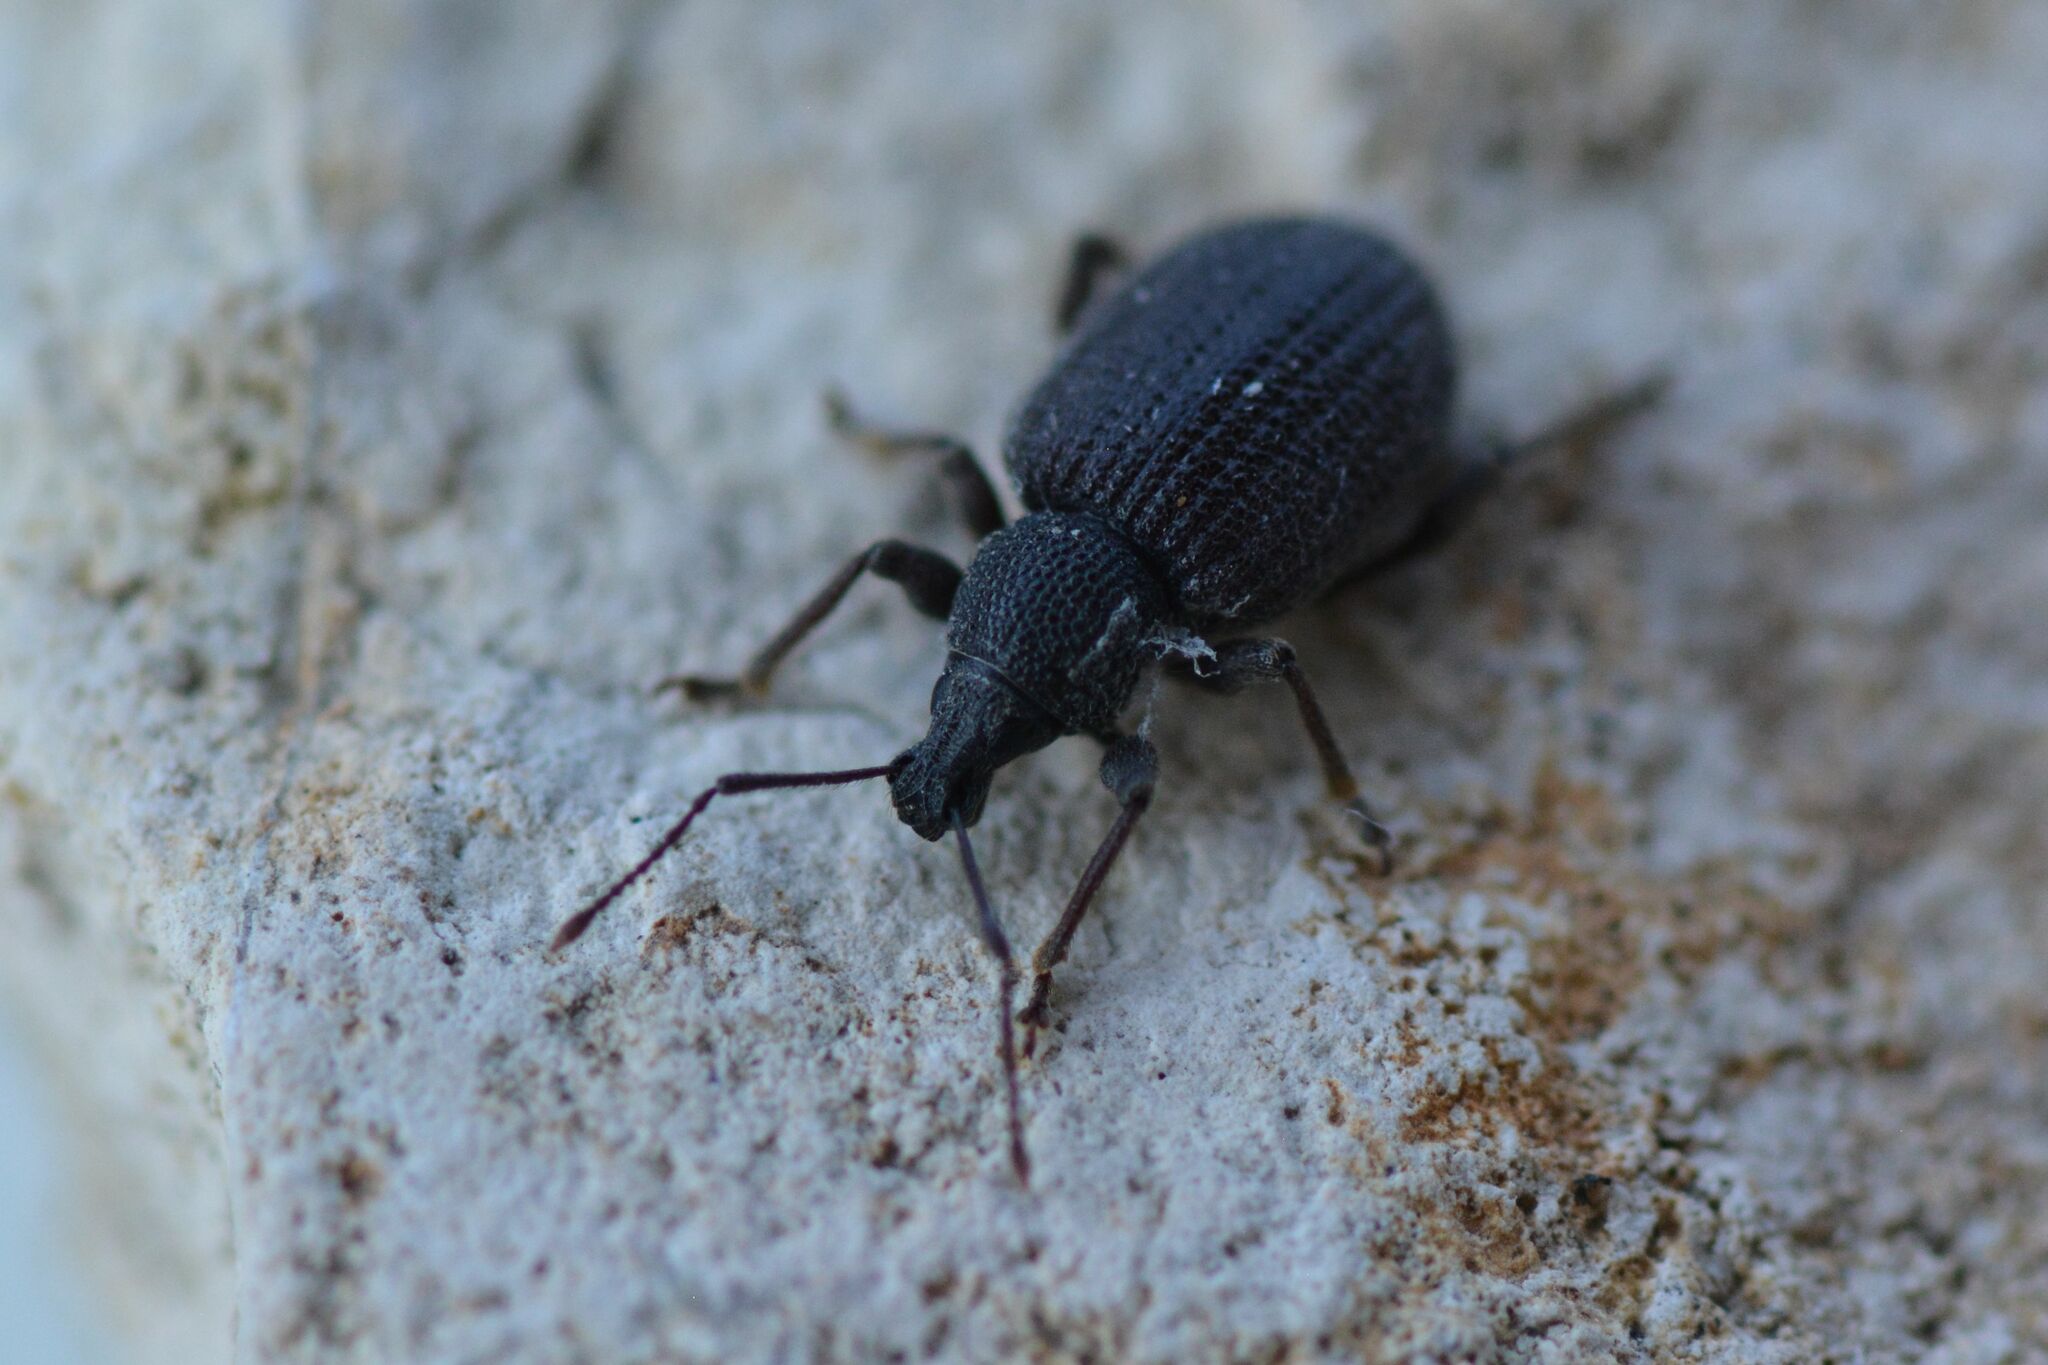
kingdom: Animalia
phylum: Arthropoda
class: Insecta
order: Coleoptera
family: Curculionidae
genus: Otiorhynchus
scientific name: Otiorhynchus rugosostriatus
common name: Weevil
